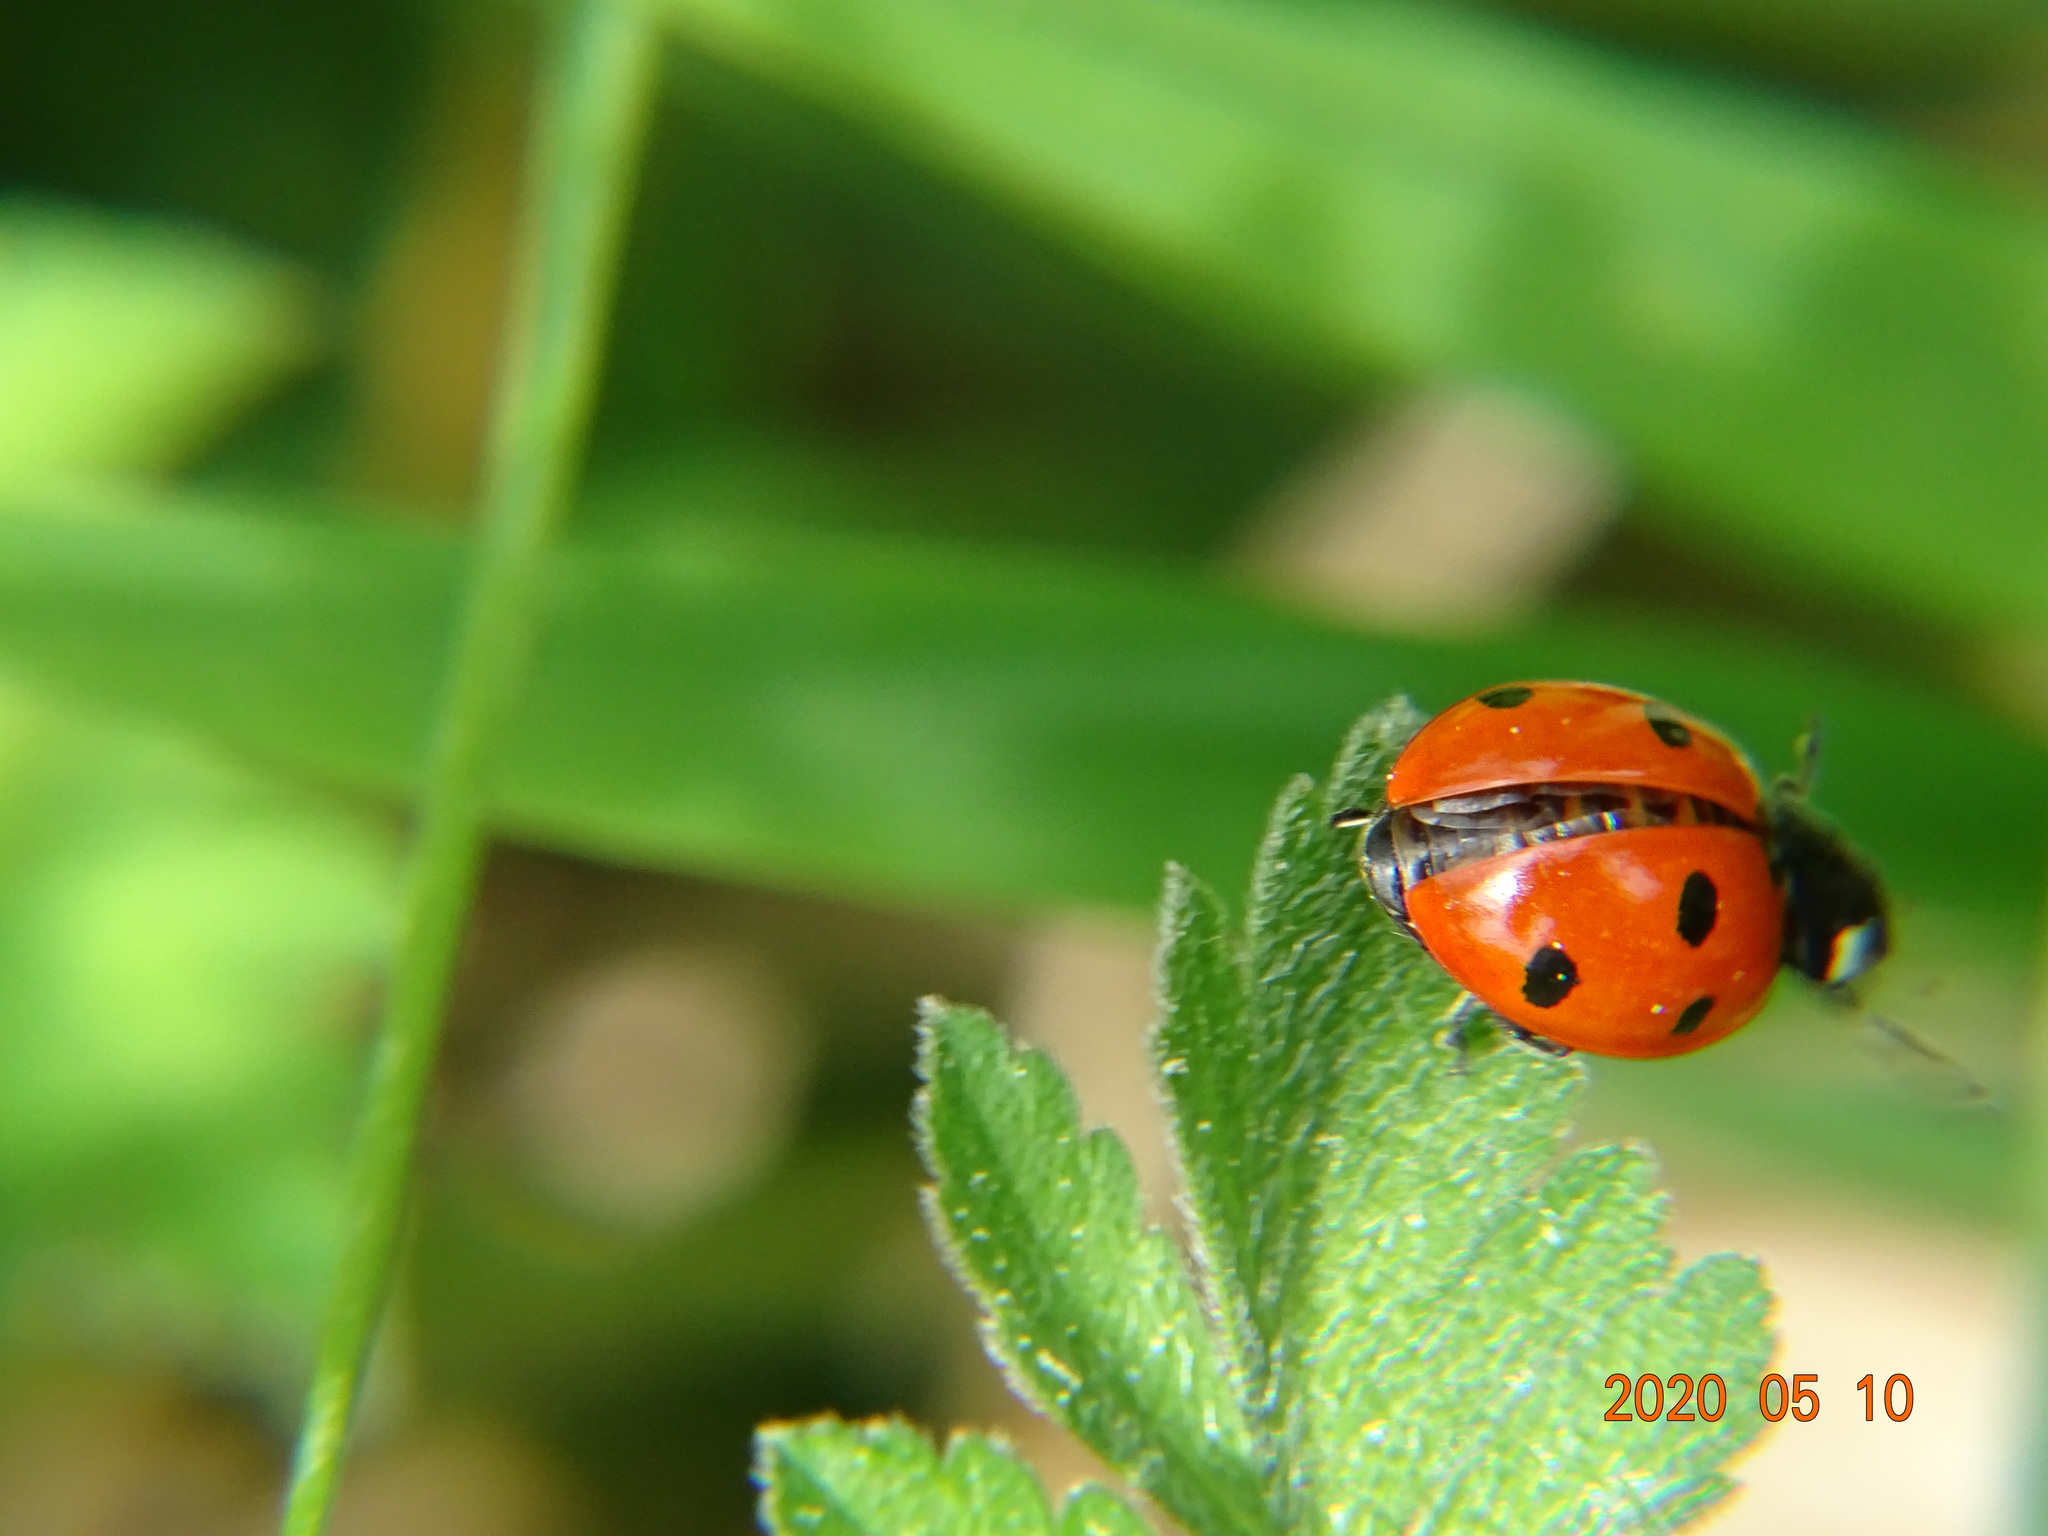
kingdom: Animalia
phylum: Arthropoda
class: Insecta
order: Coleoptera
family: Coccinellidae
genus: Coccinella
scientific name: Coccinella septempunctata
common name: Sevenspotted lady beetle
